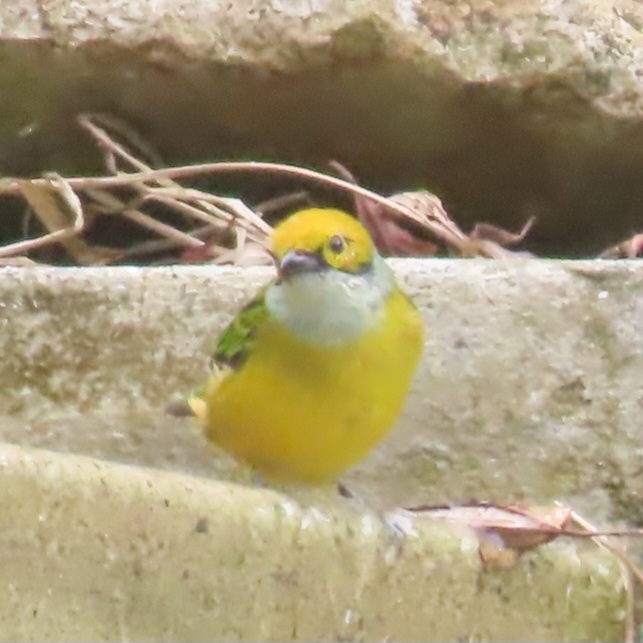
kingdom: Animalia
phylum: Chordata
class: Aves
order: Passeriformes
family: Thraupidae
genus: Tangara
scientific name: Tangara icterocephala
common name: Silver-throated tanager
